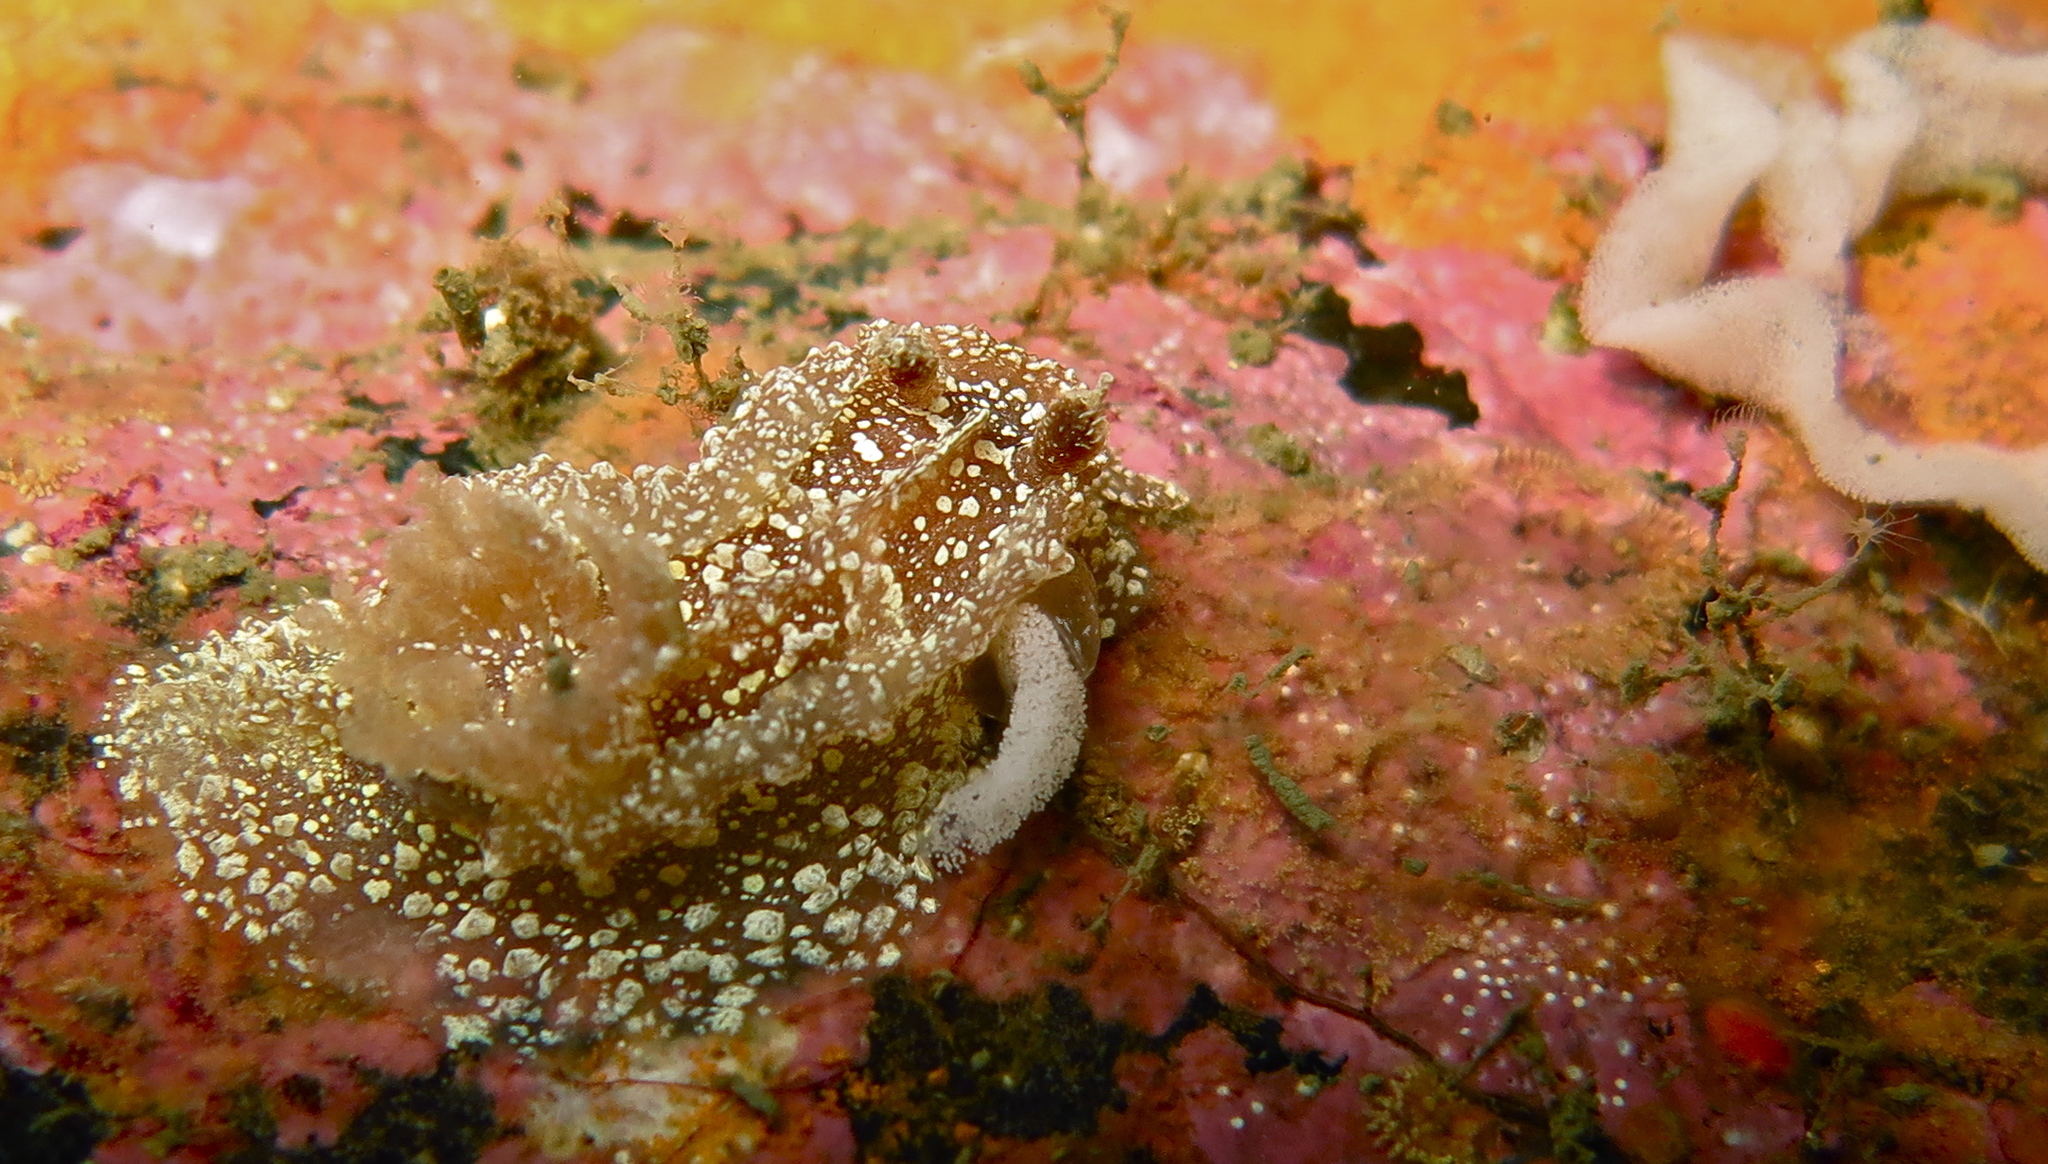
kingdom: Animalia
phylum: Mollusca
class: Gastropoda
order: Nudibranchia
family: Goniodorididae
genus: Pelagella
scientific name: Pelagella castanea
